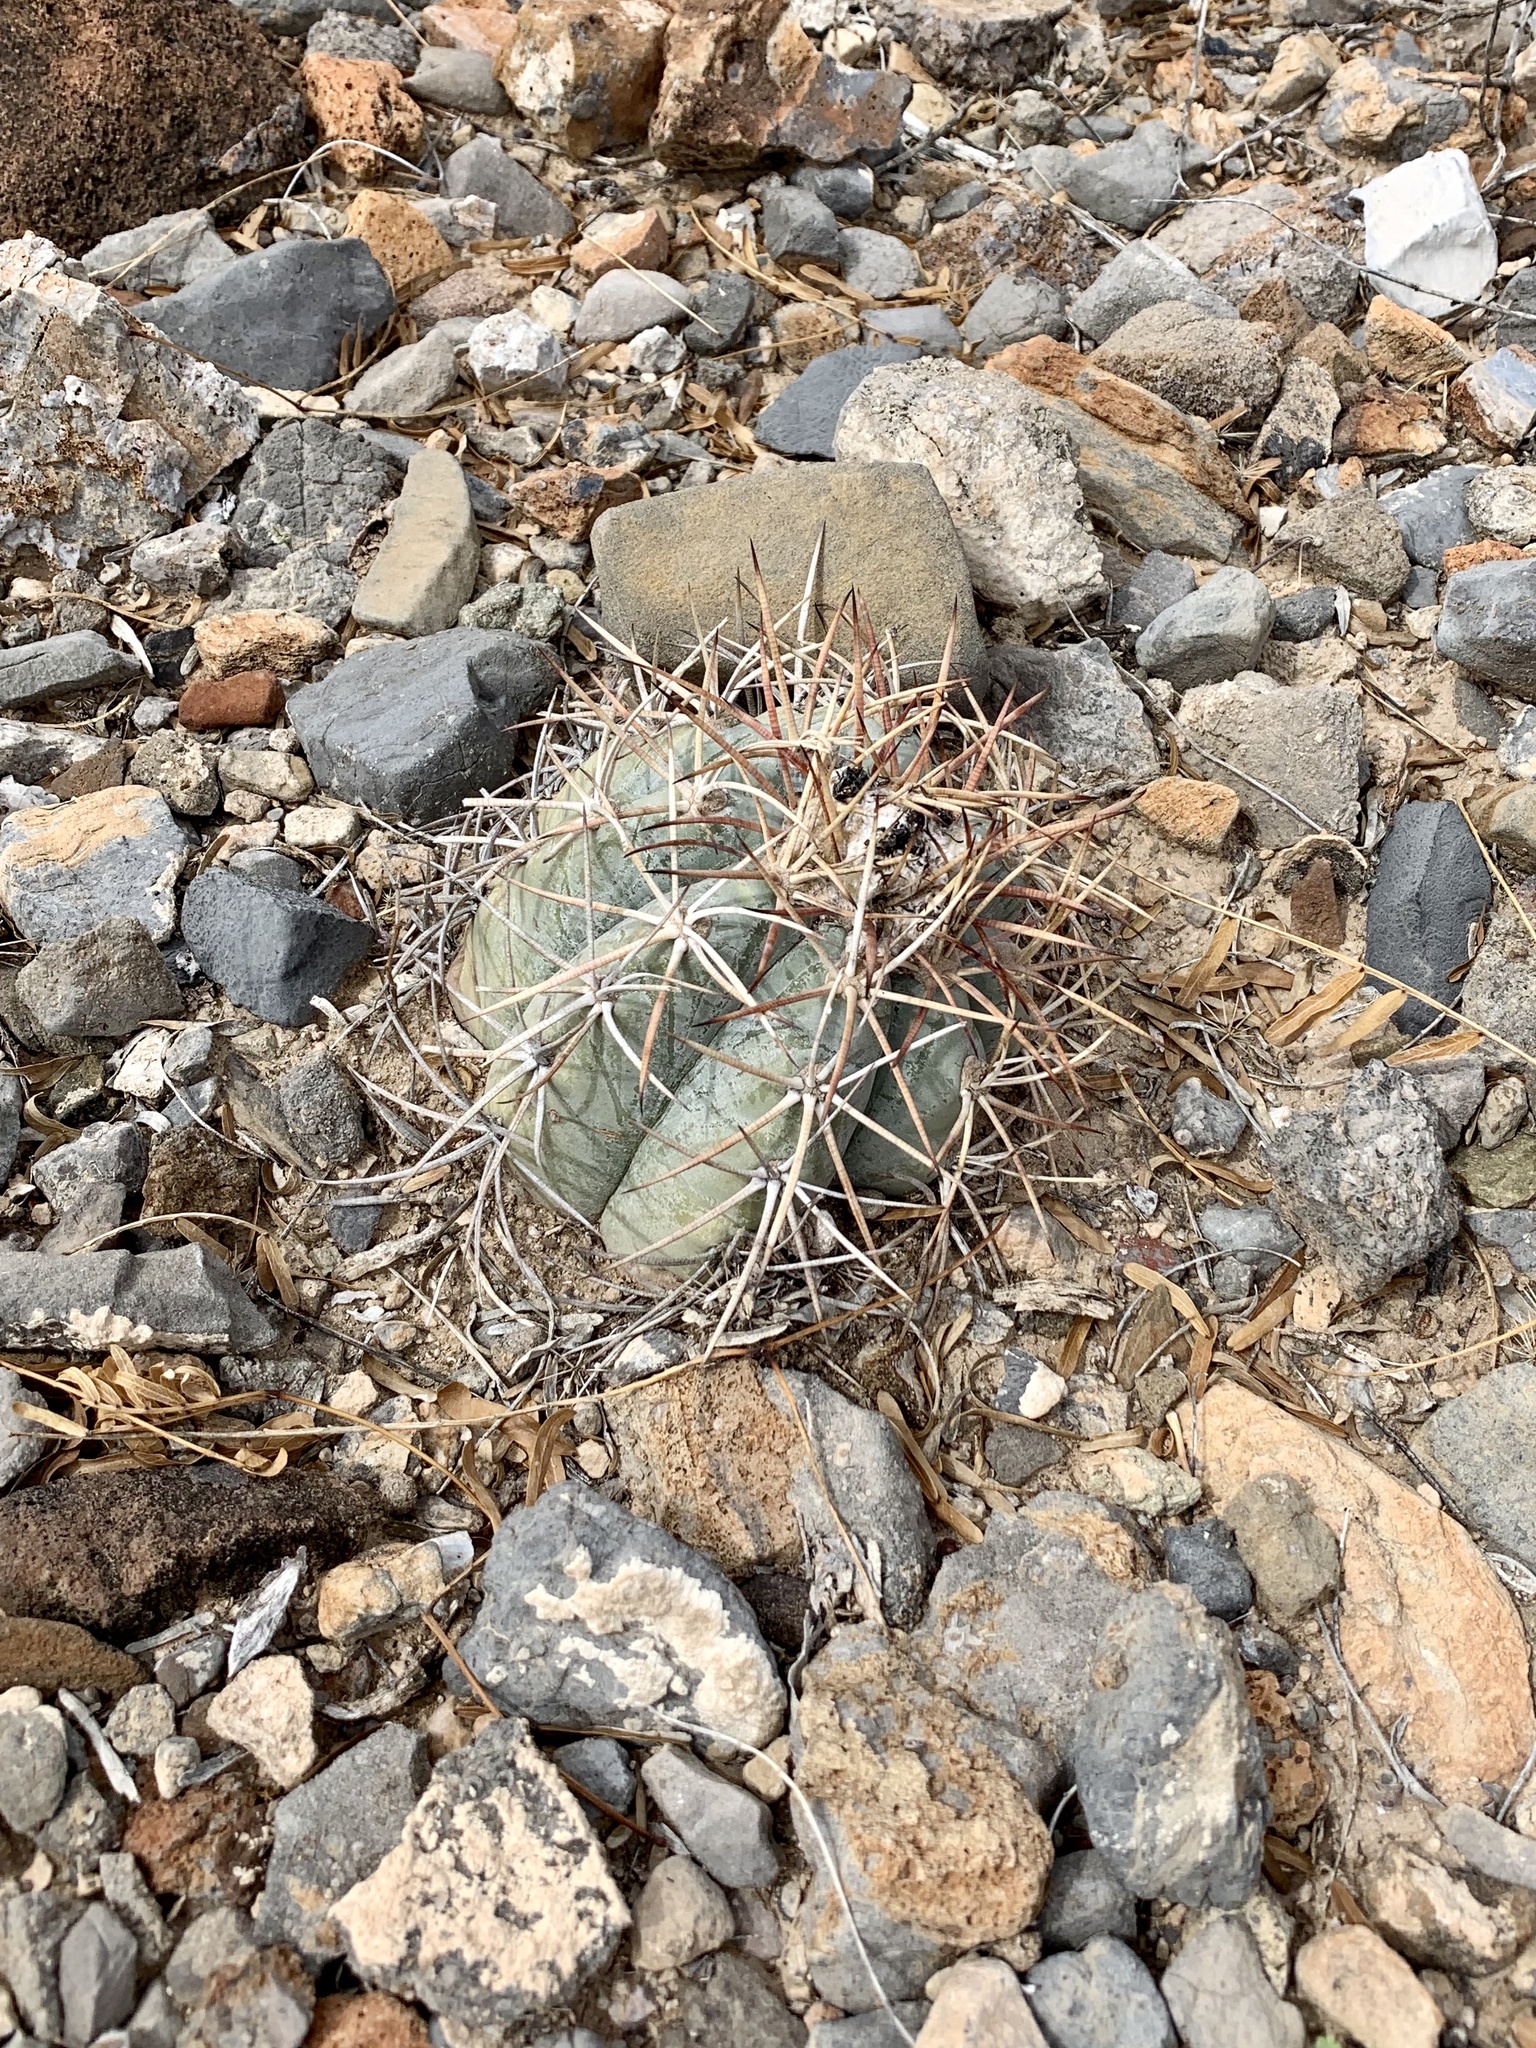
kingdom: Plantae
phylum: Tracheophyta
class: Magnoliopsida
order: Caryophyllales
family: Cactaceae
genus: Echinocactus
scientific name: Echinocactus horizonthalonius
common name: Devilshead
